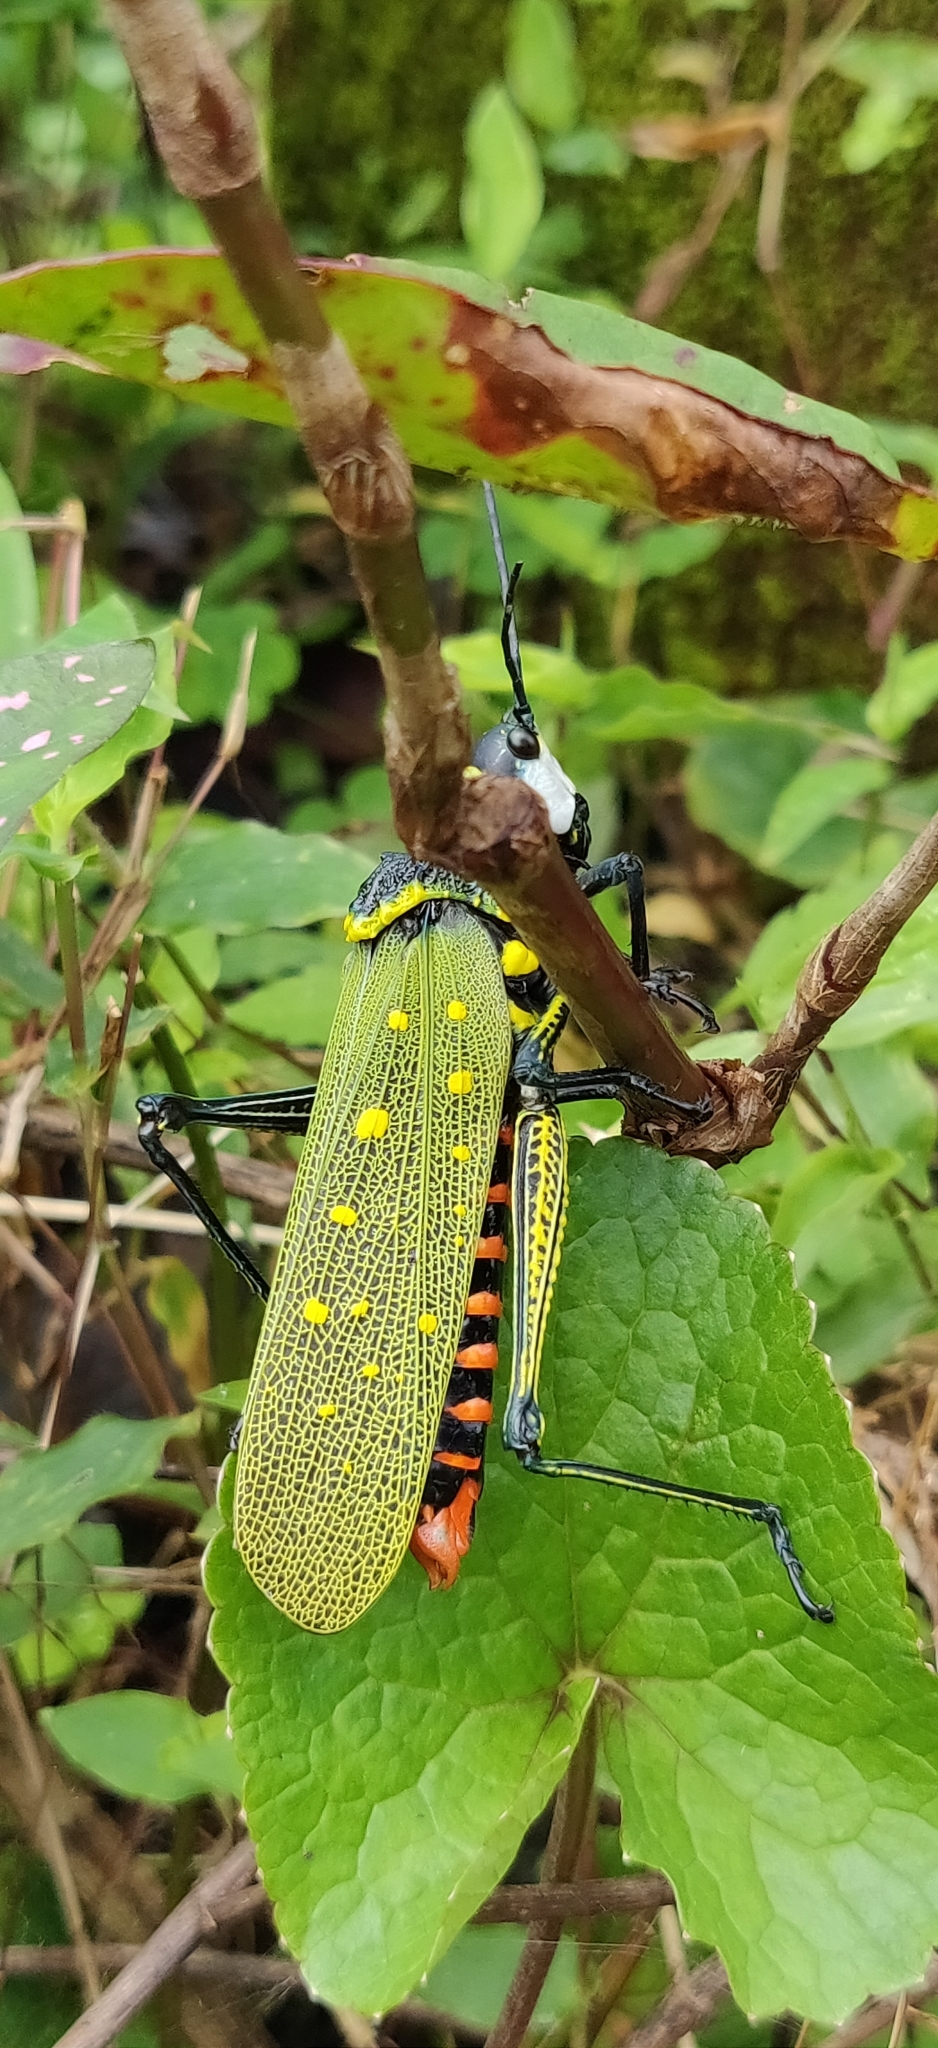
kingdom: Animalia
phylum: Arthropoda
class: Insecta
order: Orthoptera
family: Pyrgomorphidae
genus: Aularches
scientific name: Aularches miliaris
